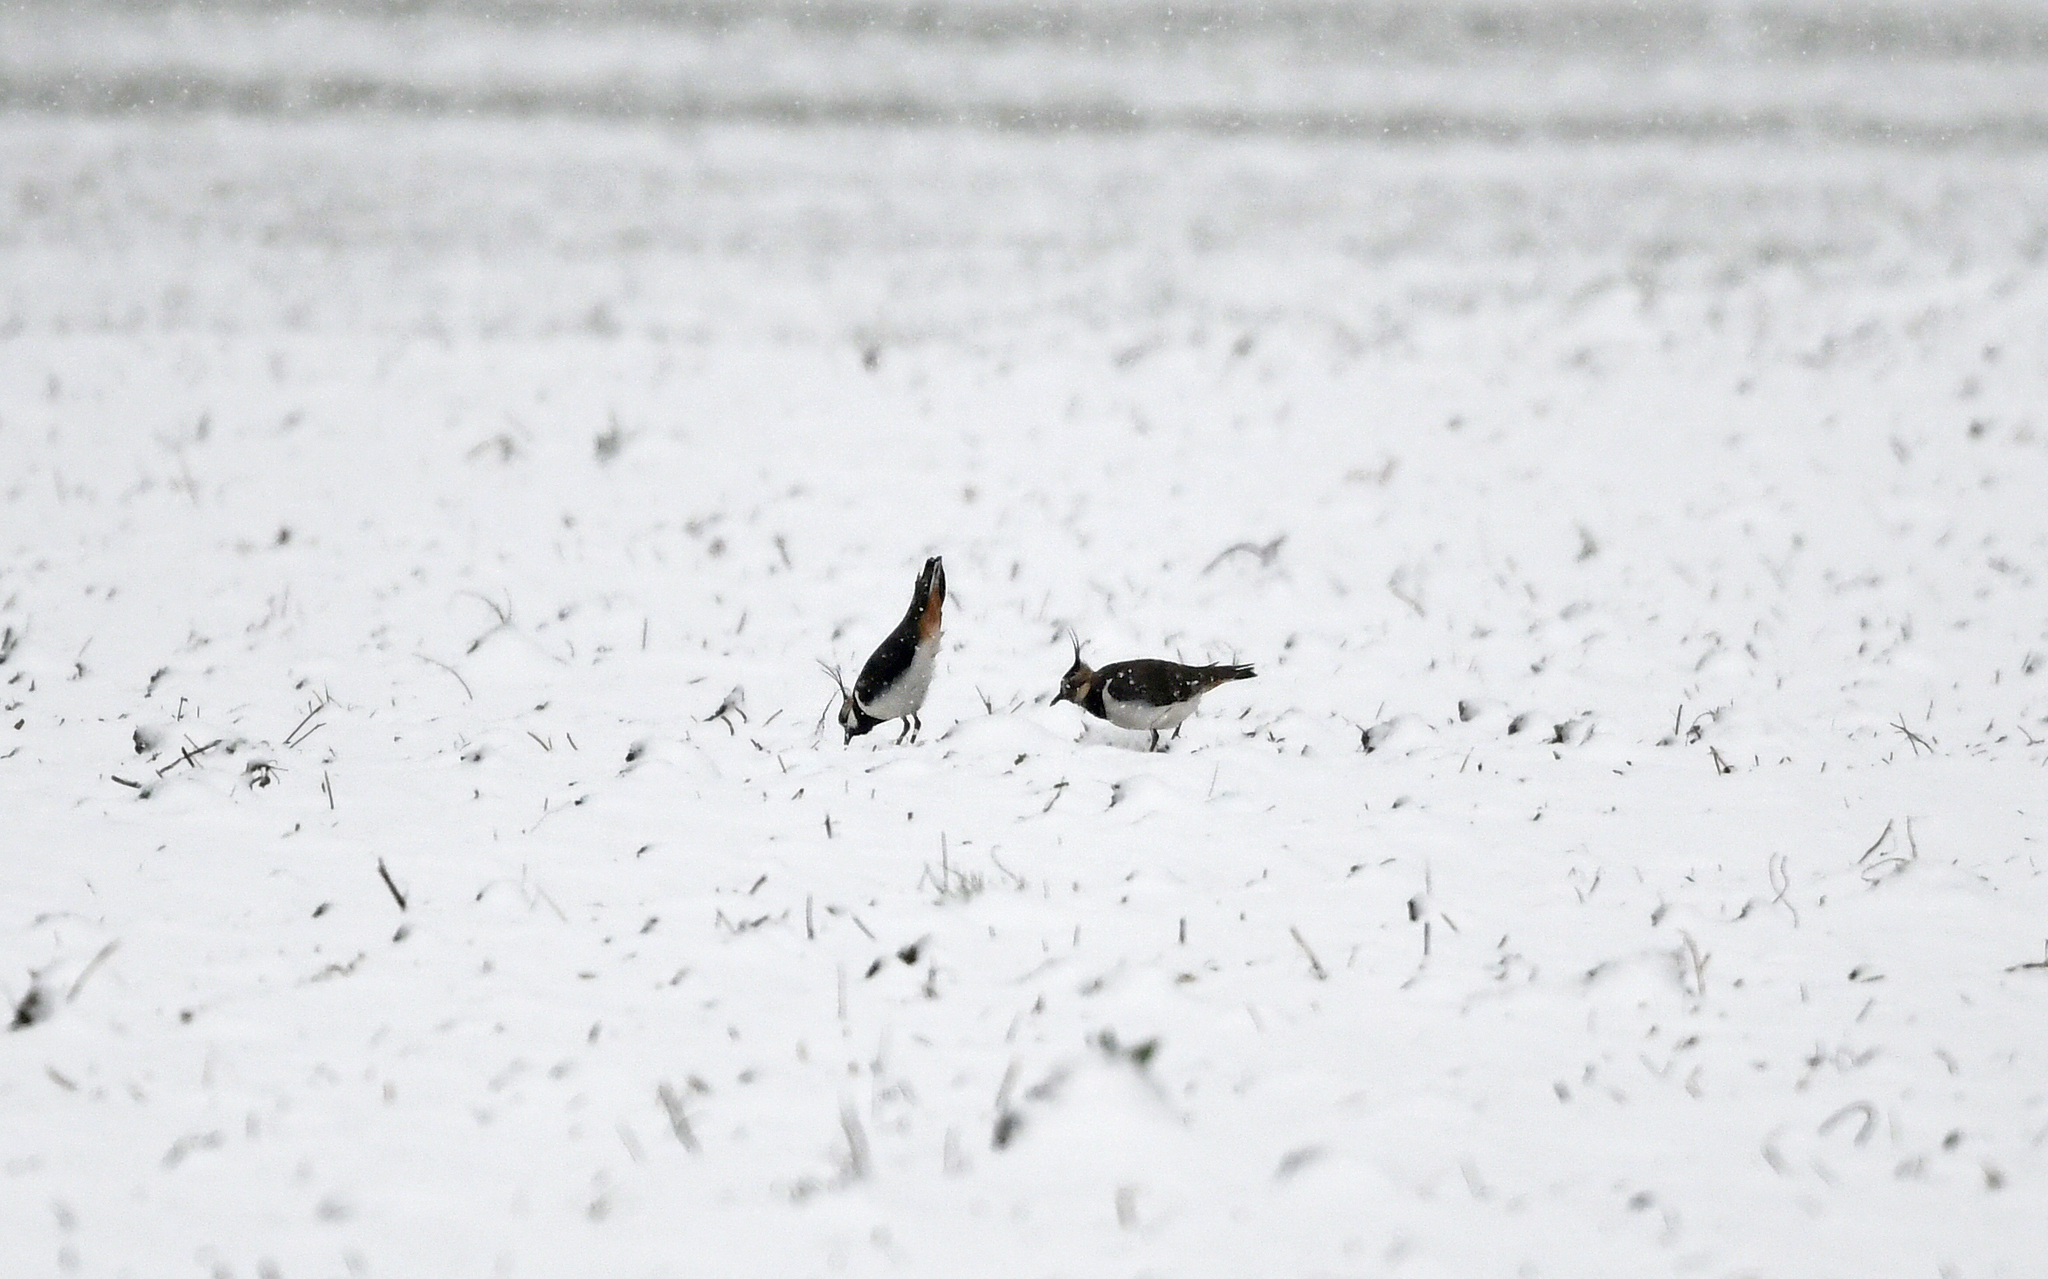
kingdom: Animalia
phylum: Chordata
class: Aves
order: Charadriiformes
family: Charadriidae
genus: Vanellus
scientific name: Vanellus vanellus
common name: Northern lapwing
